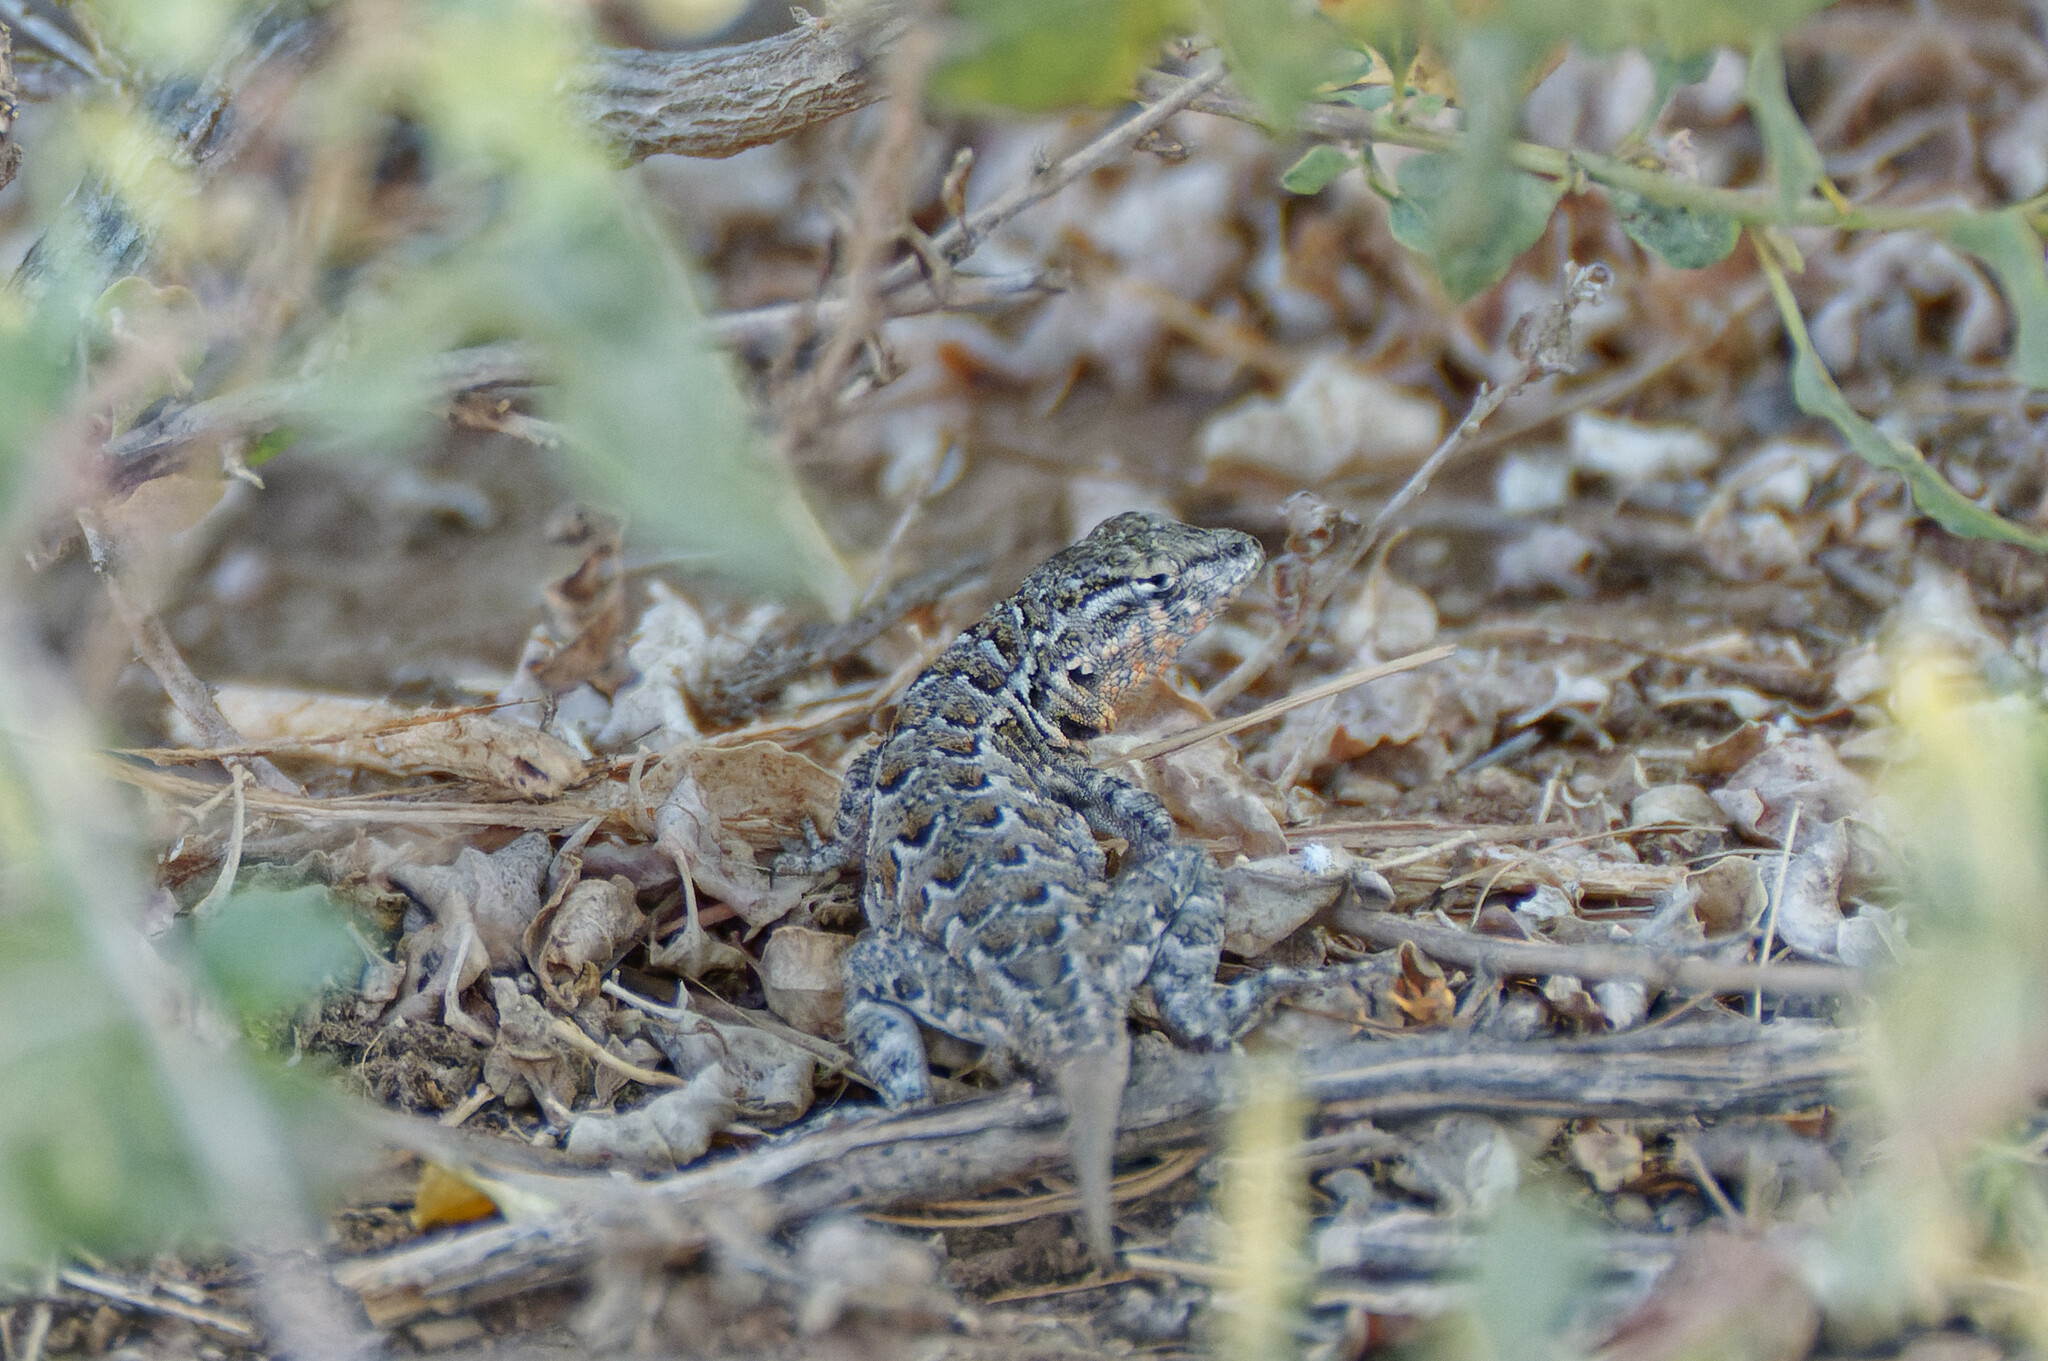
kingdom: Animalia
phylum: Chordata
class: Squamata
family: Phrynosomatidae
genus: Uta
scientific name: Uta stansburiana
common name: Side-blotched lizard
